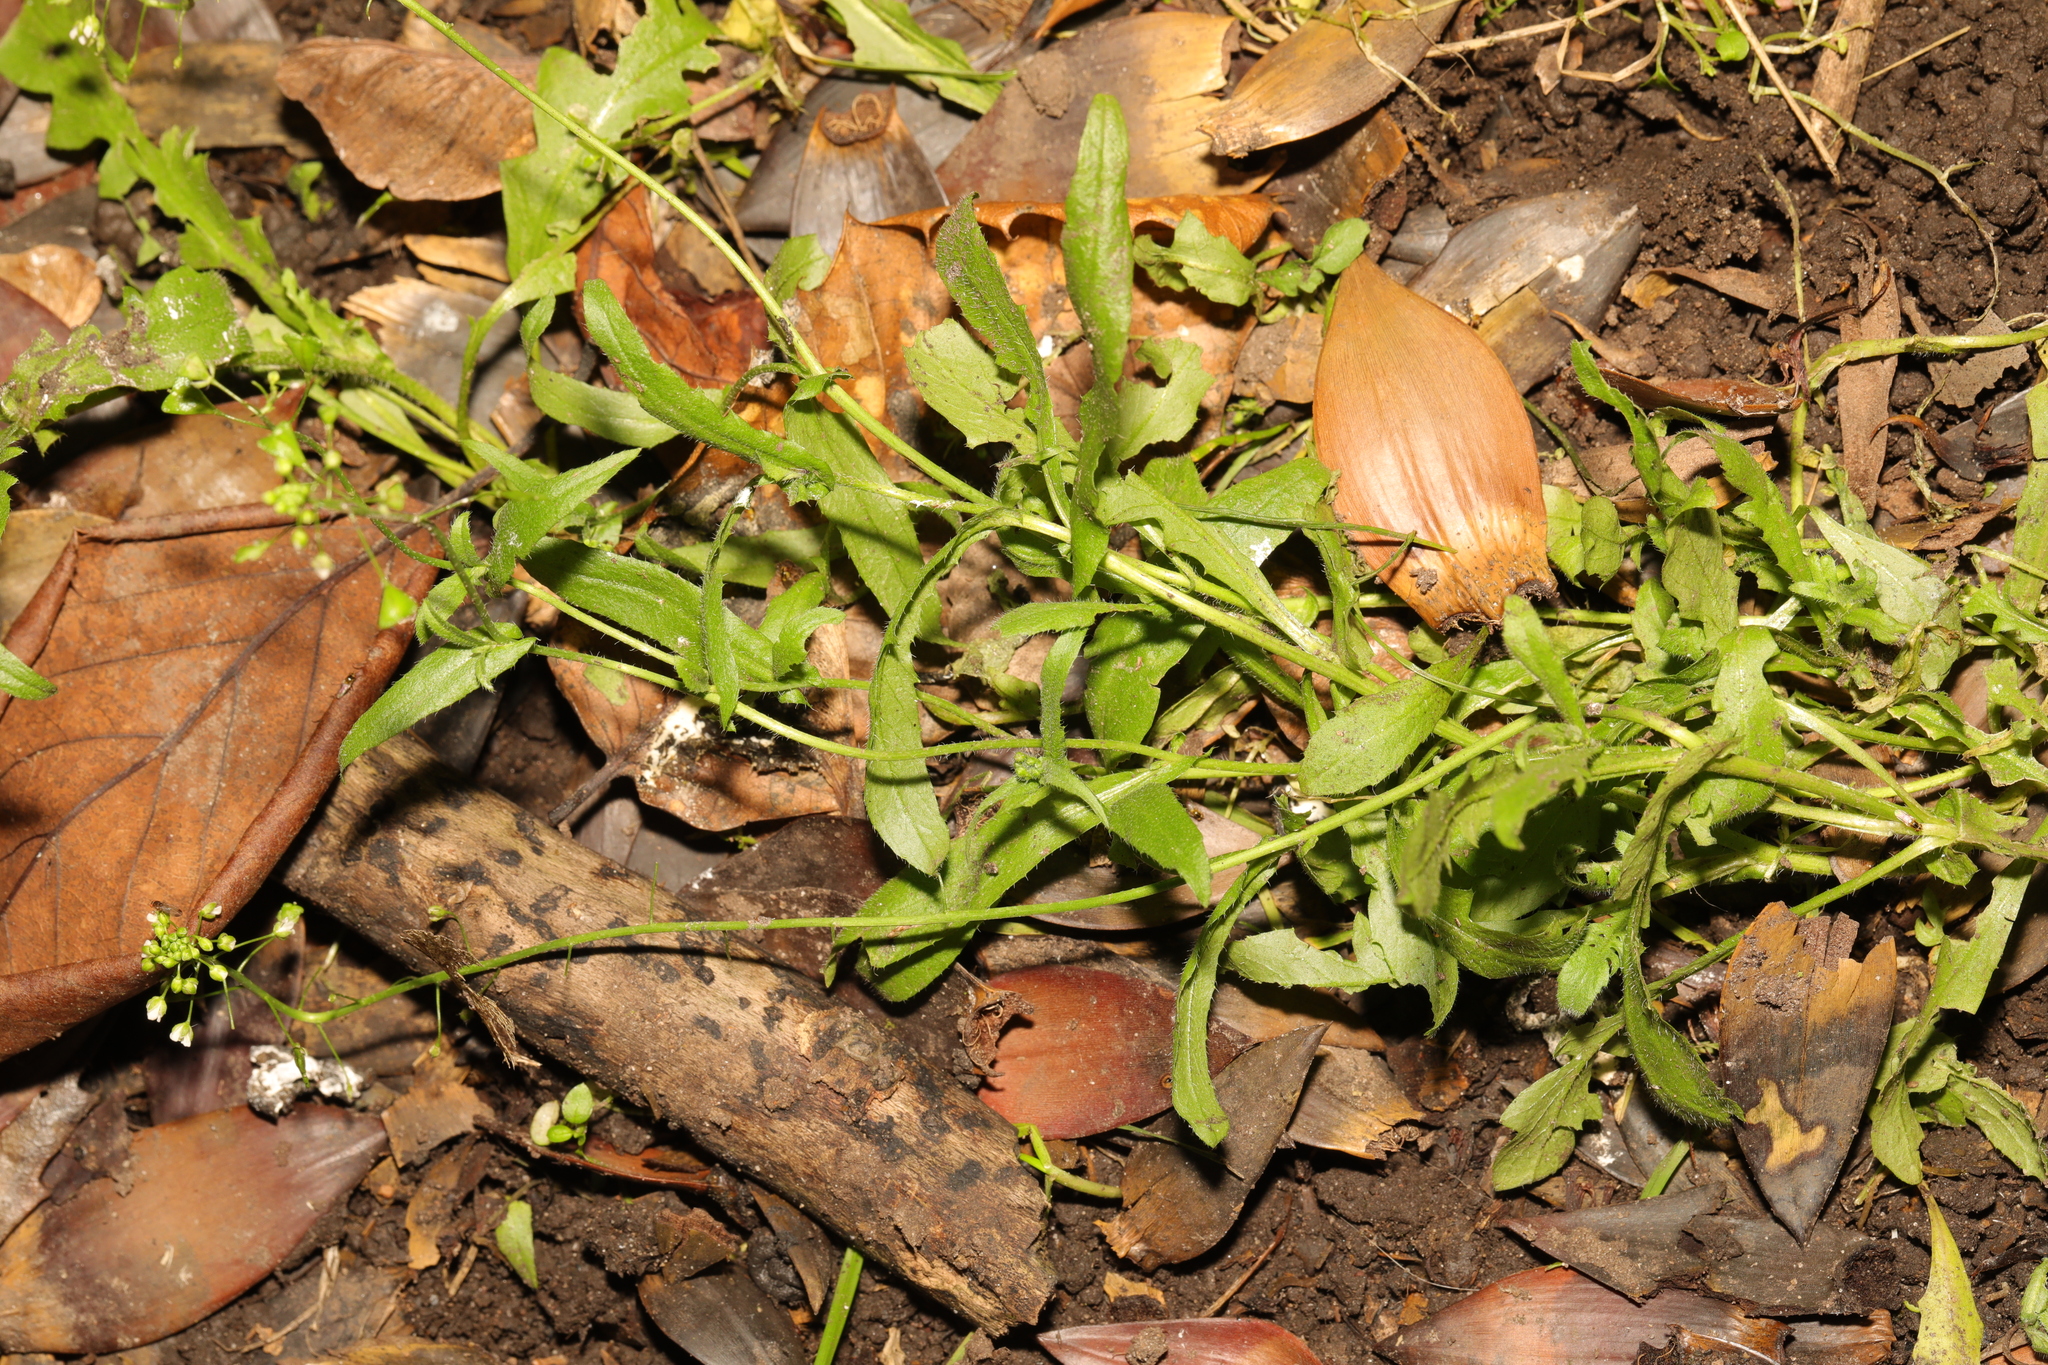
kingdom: Plantae
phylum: Tracheophyta
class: Magnoliopsida
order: Brassicales
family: Brassicaceae
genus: Capsella
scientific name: Capsella bursa-pastoris
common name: Shepherd's purse
